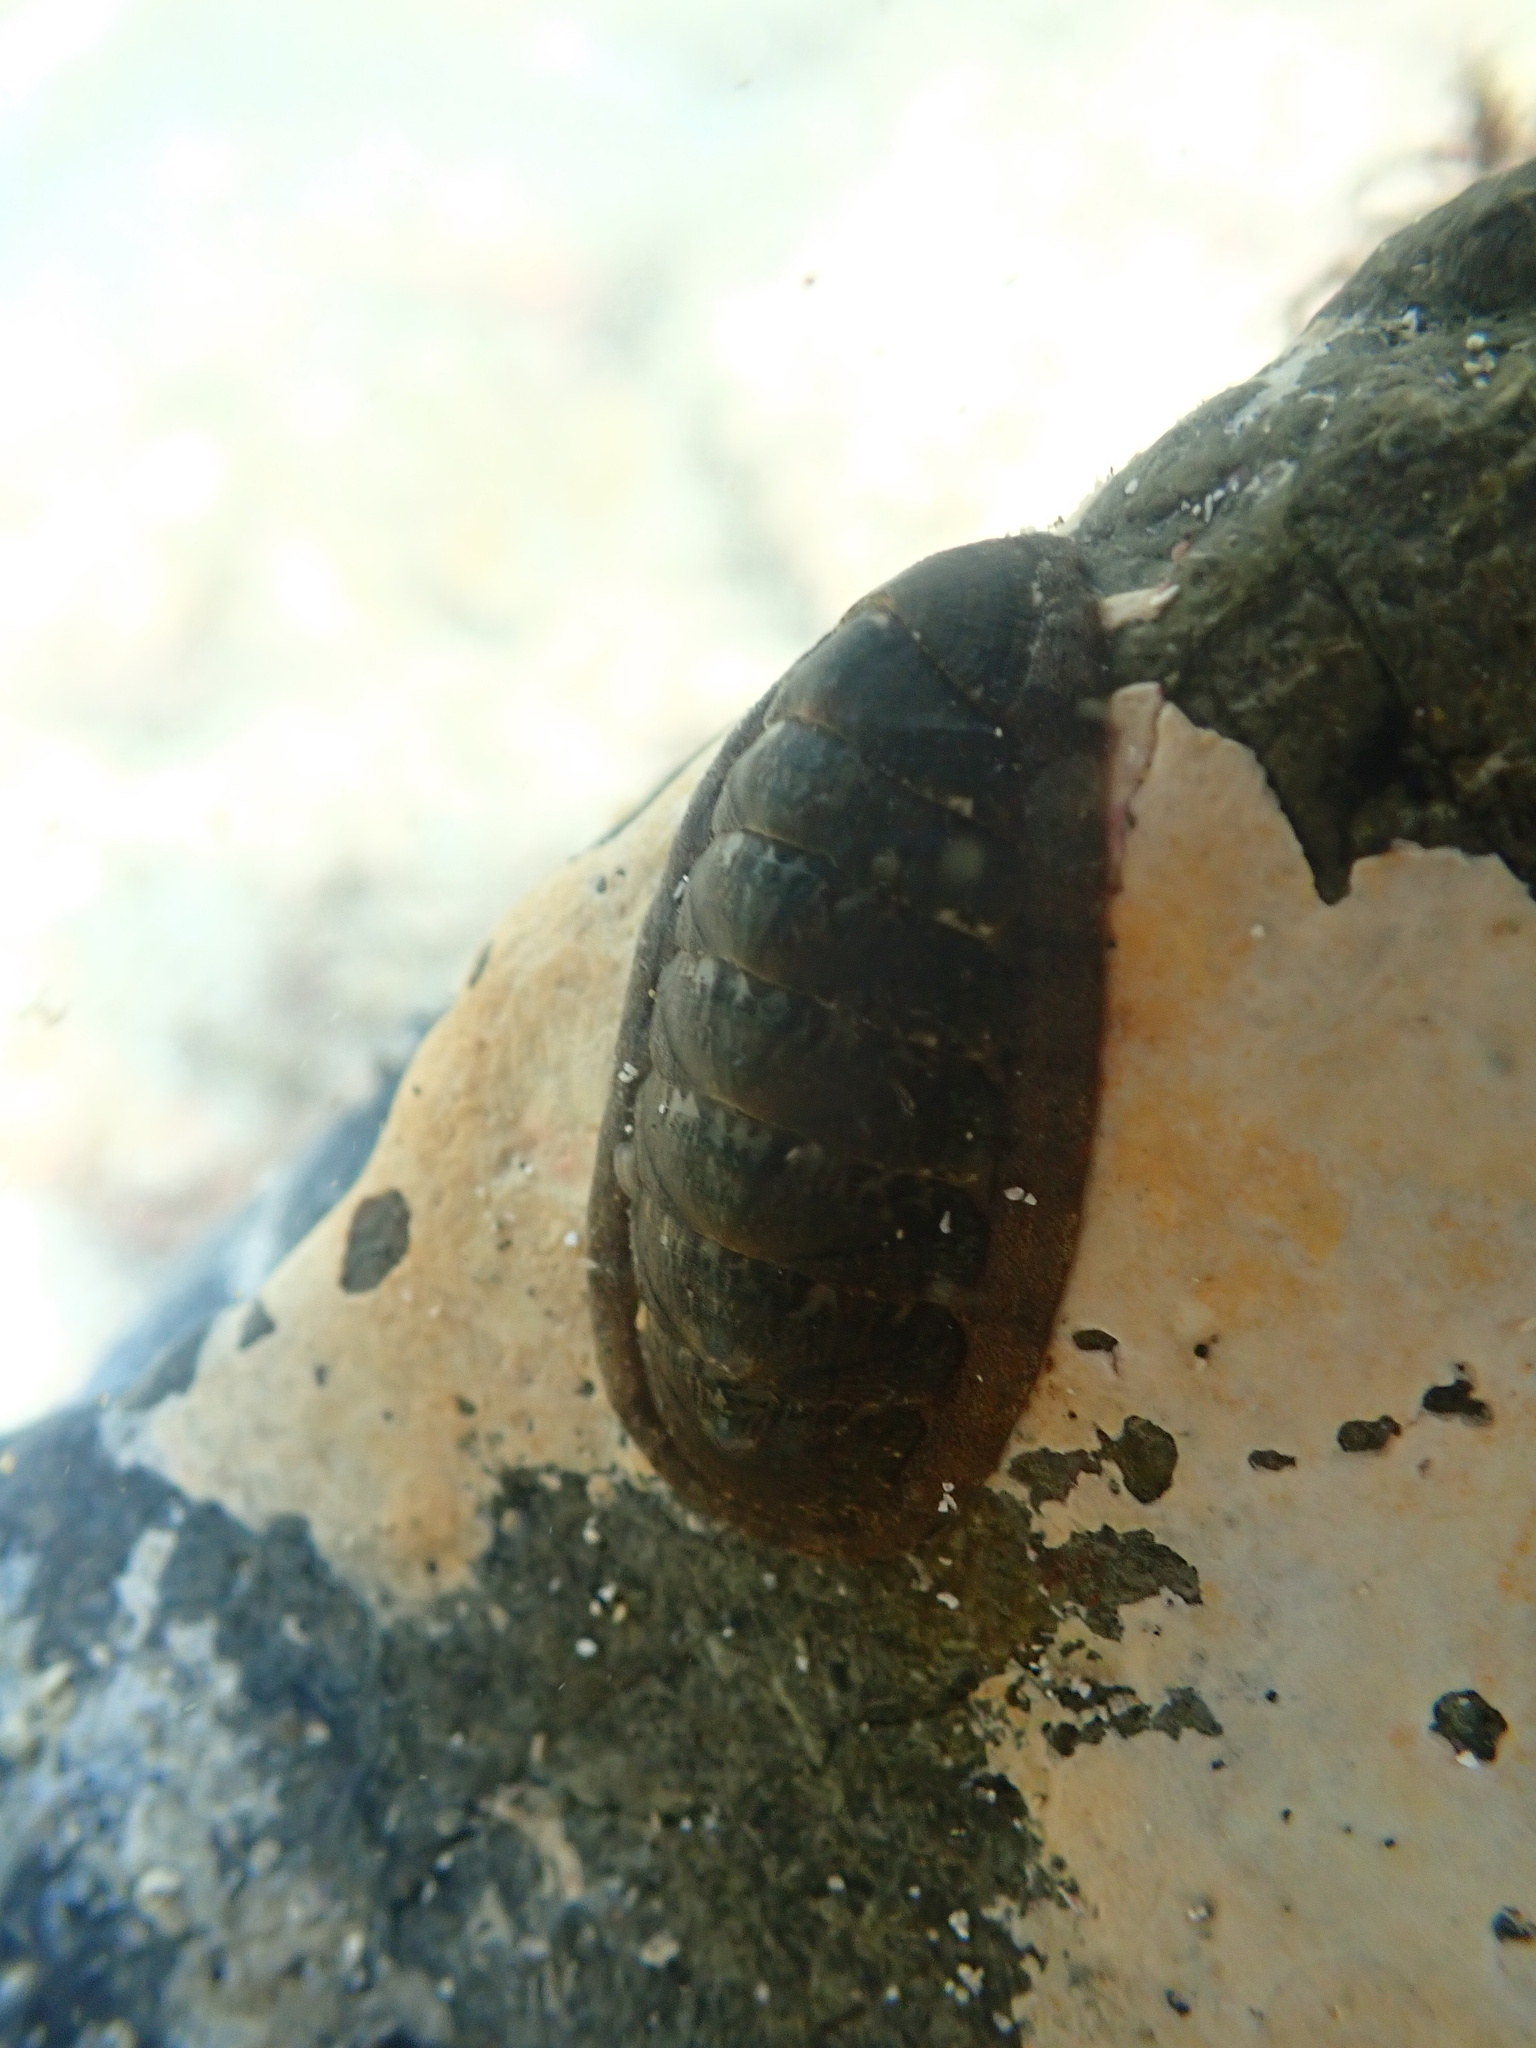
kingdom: Animalia
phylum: Mollusca
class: Polyplacophora
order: Chitonida
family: Ischnochitonidae
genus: Ischnochiton
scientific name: Ischnochiton maorianus
